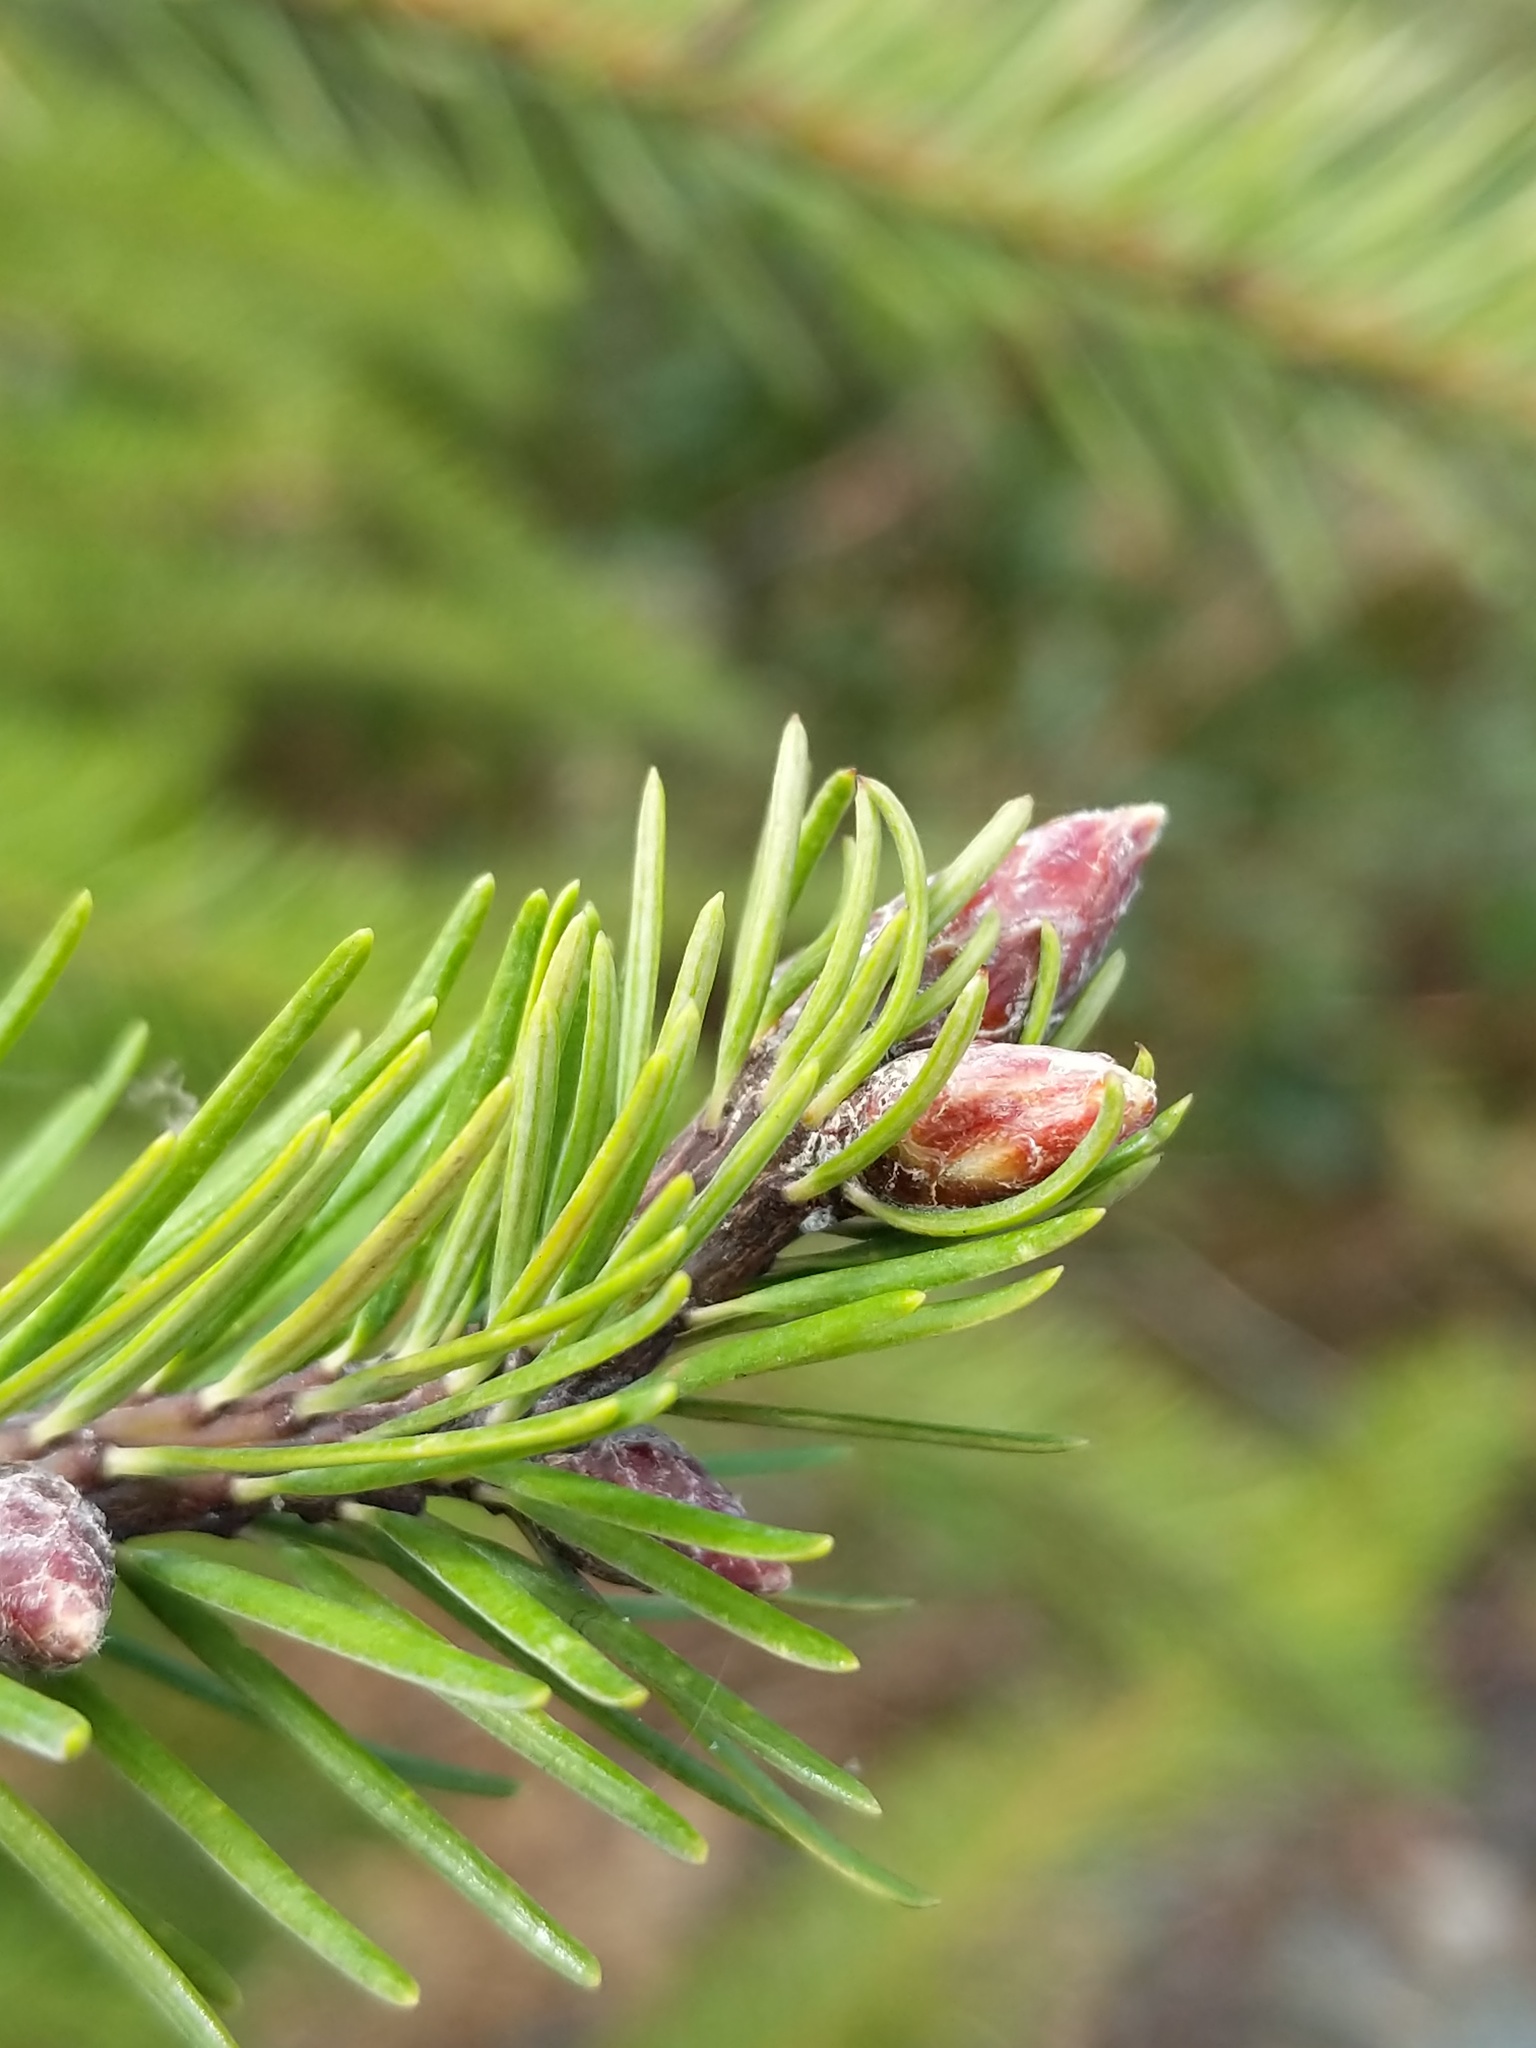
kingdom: Plantae
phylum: Tracheophyta
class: Pinopsida
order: Pinales
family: Pinaceae
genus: Pseudotsuga
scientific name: Pseudotsuga menziesii
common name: Douglas fir
